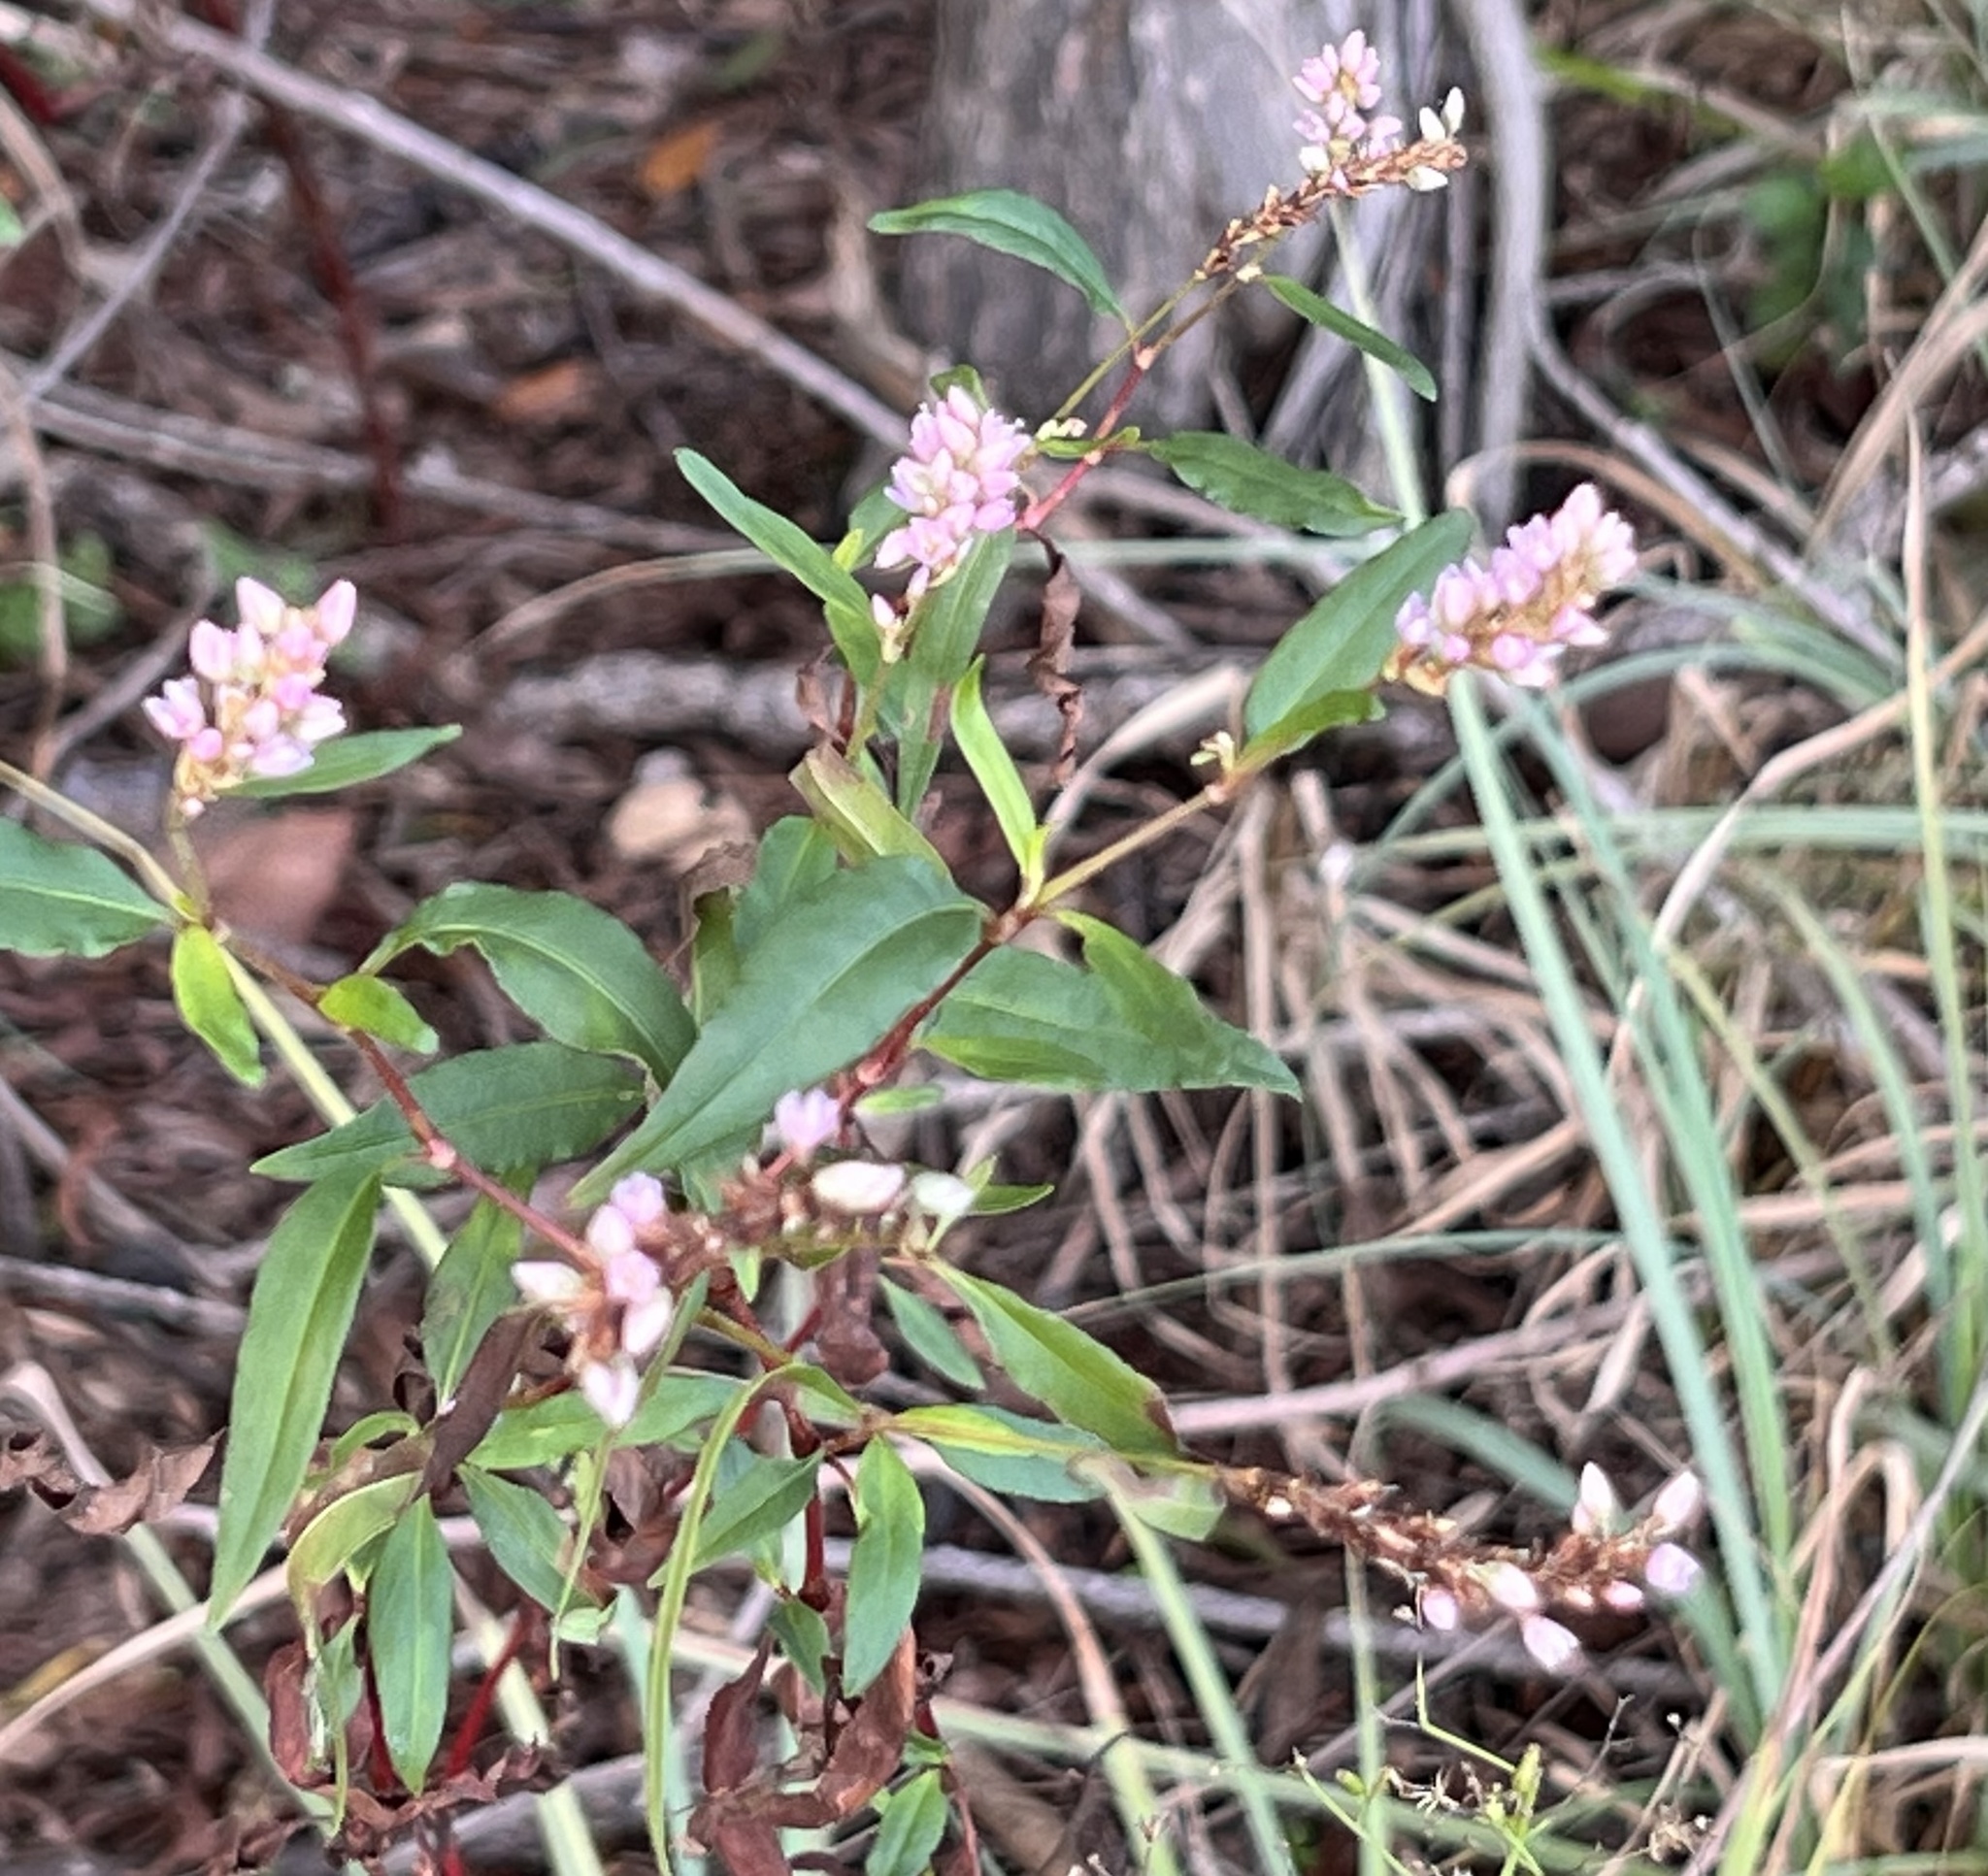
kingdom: Plantae
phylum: Tracheophyta
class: Magnoliopsida
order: Caryophyllales
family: Polygonaceae
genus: Persicaria
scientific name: Persicaria bicornis
